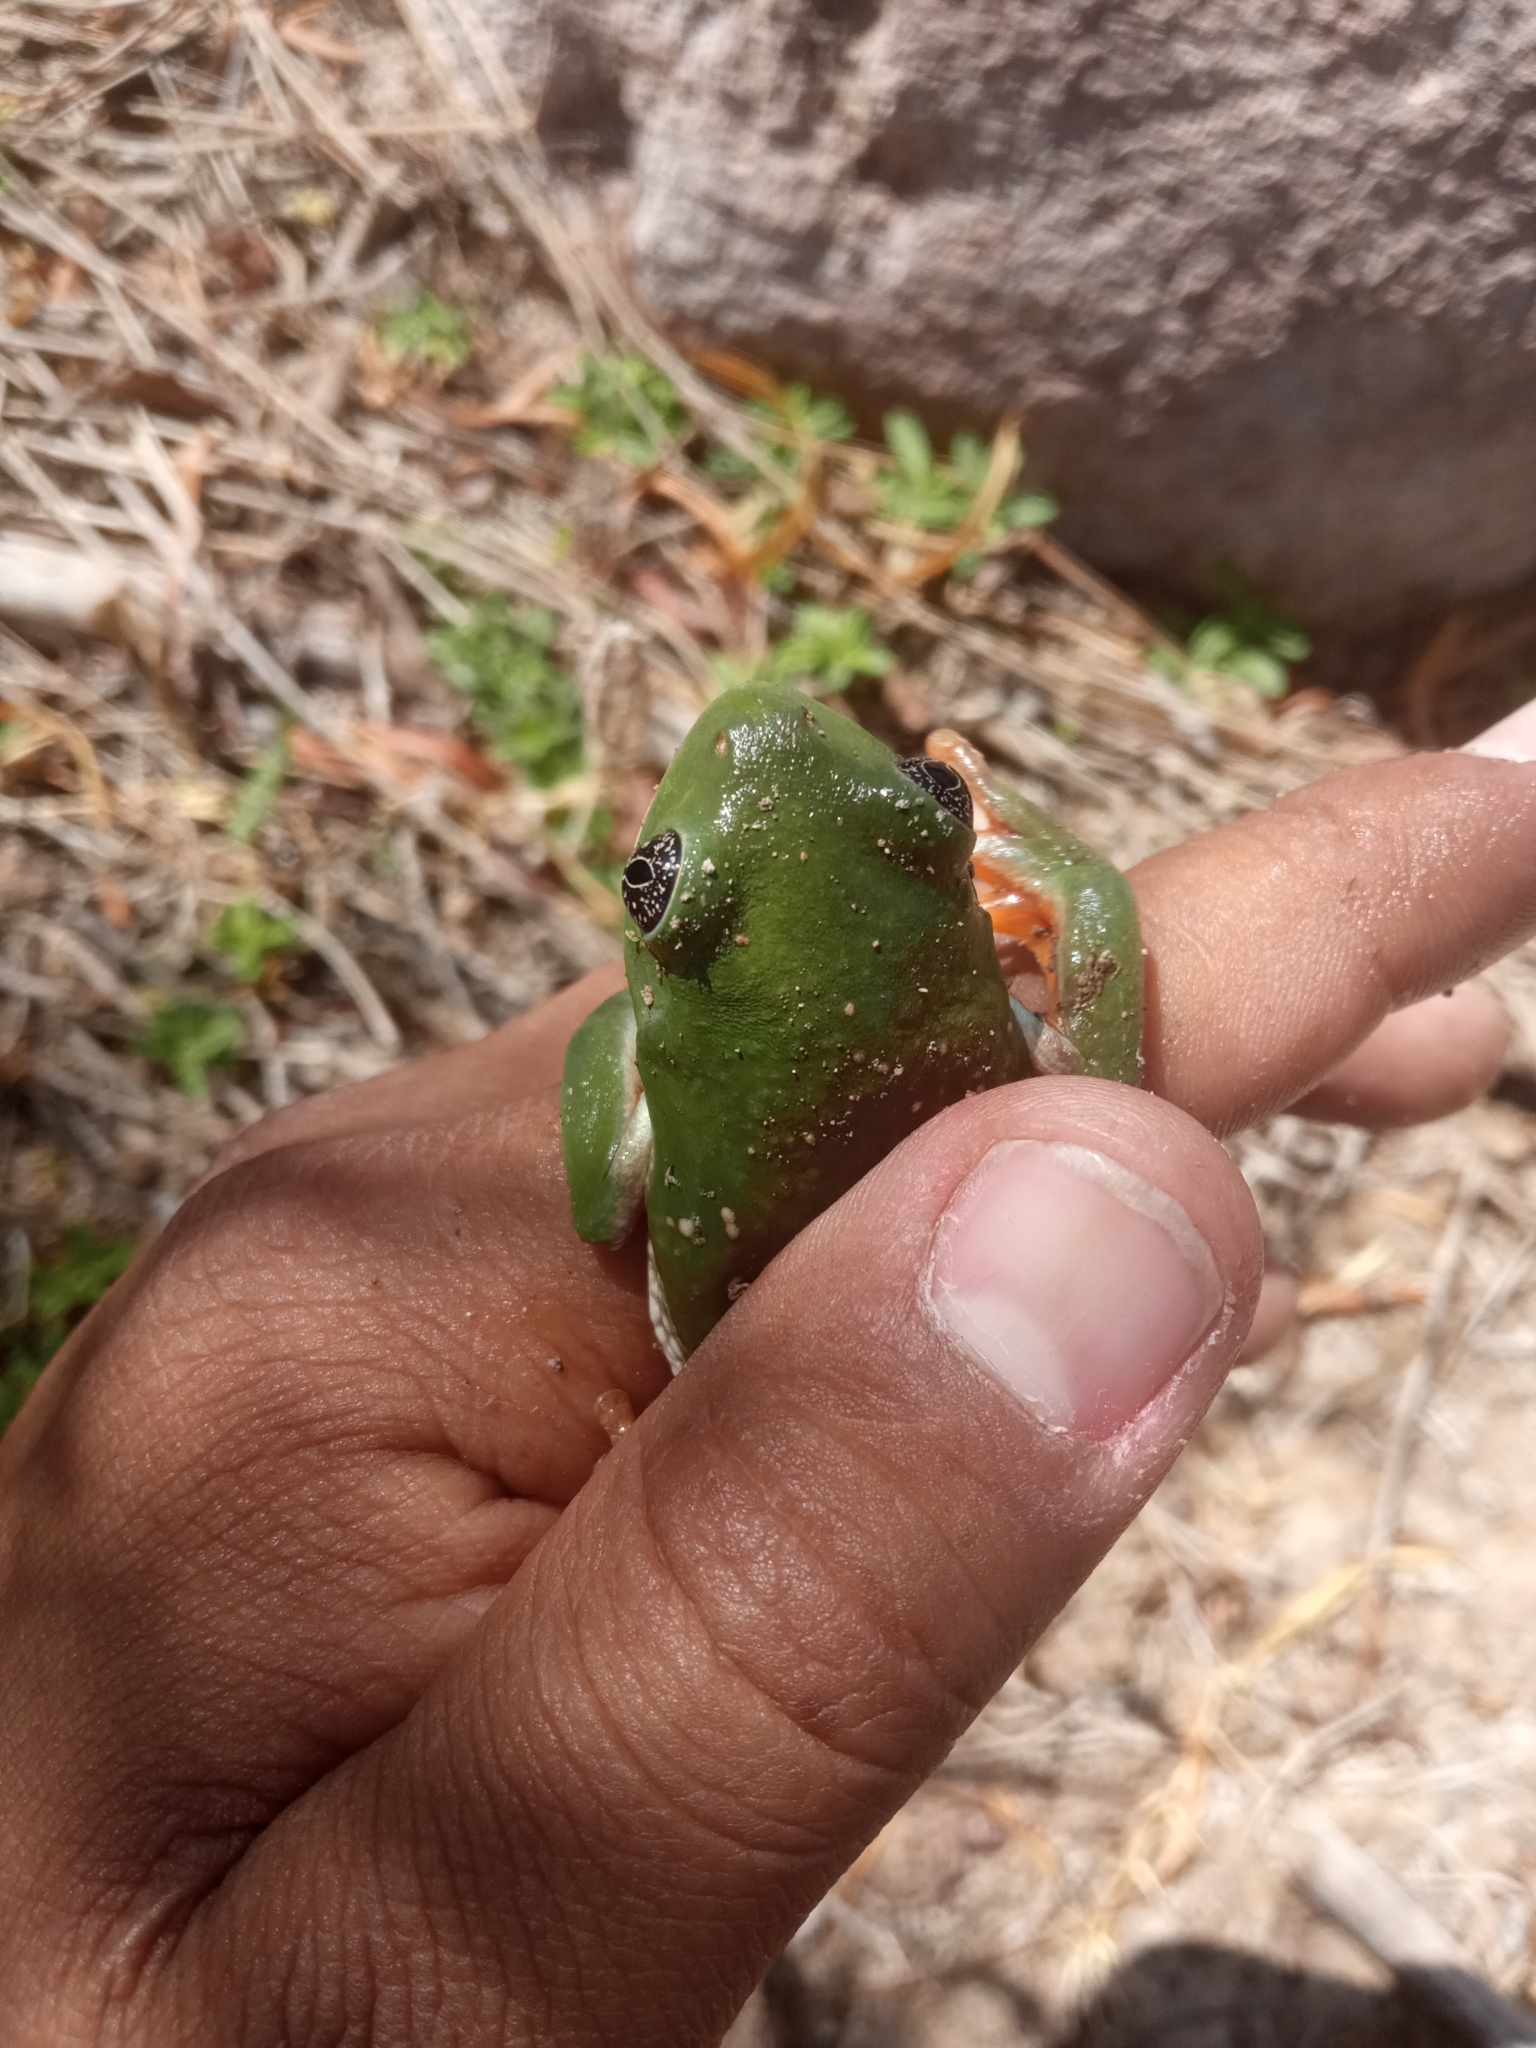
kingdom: Animalia
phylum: Chordata
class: Amphibia
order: Anura
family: Phyllomedusidae
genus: Agalychnis
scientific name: Agalychnis dacnicolor
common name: Mexican giant tree frog
